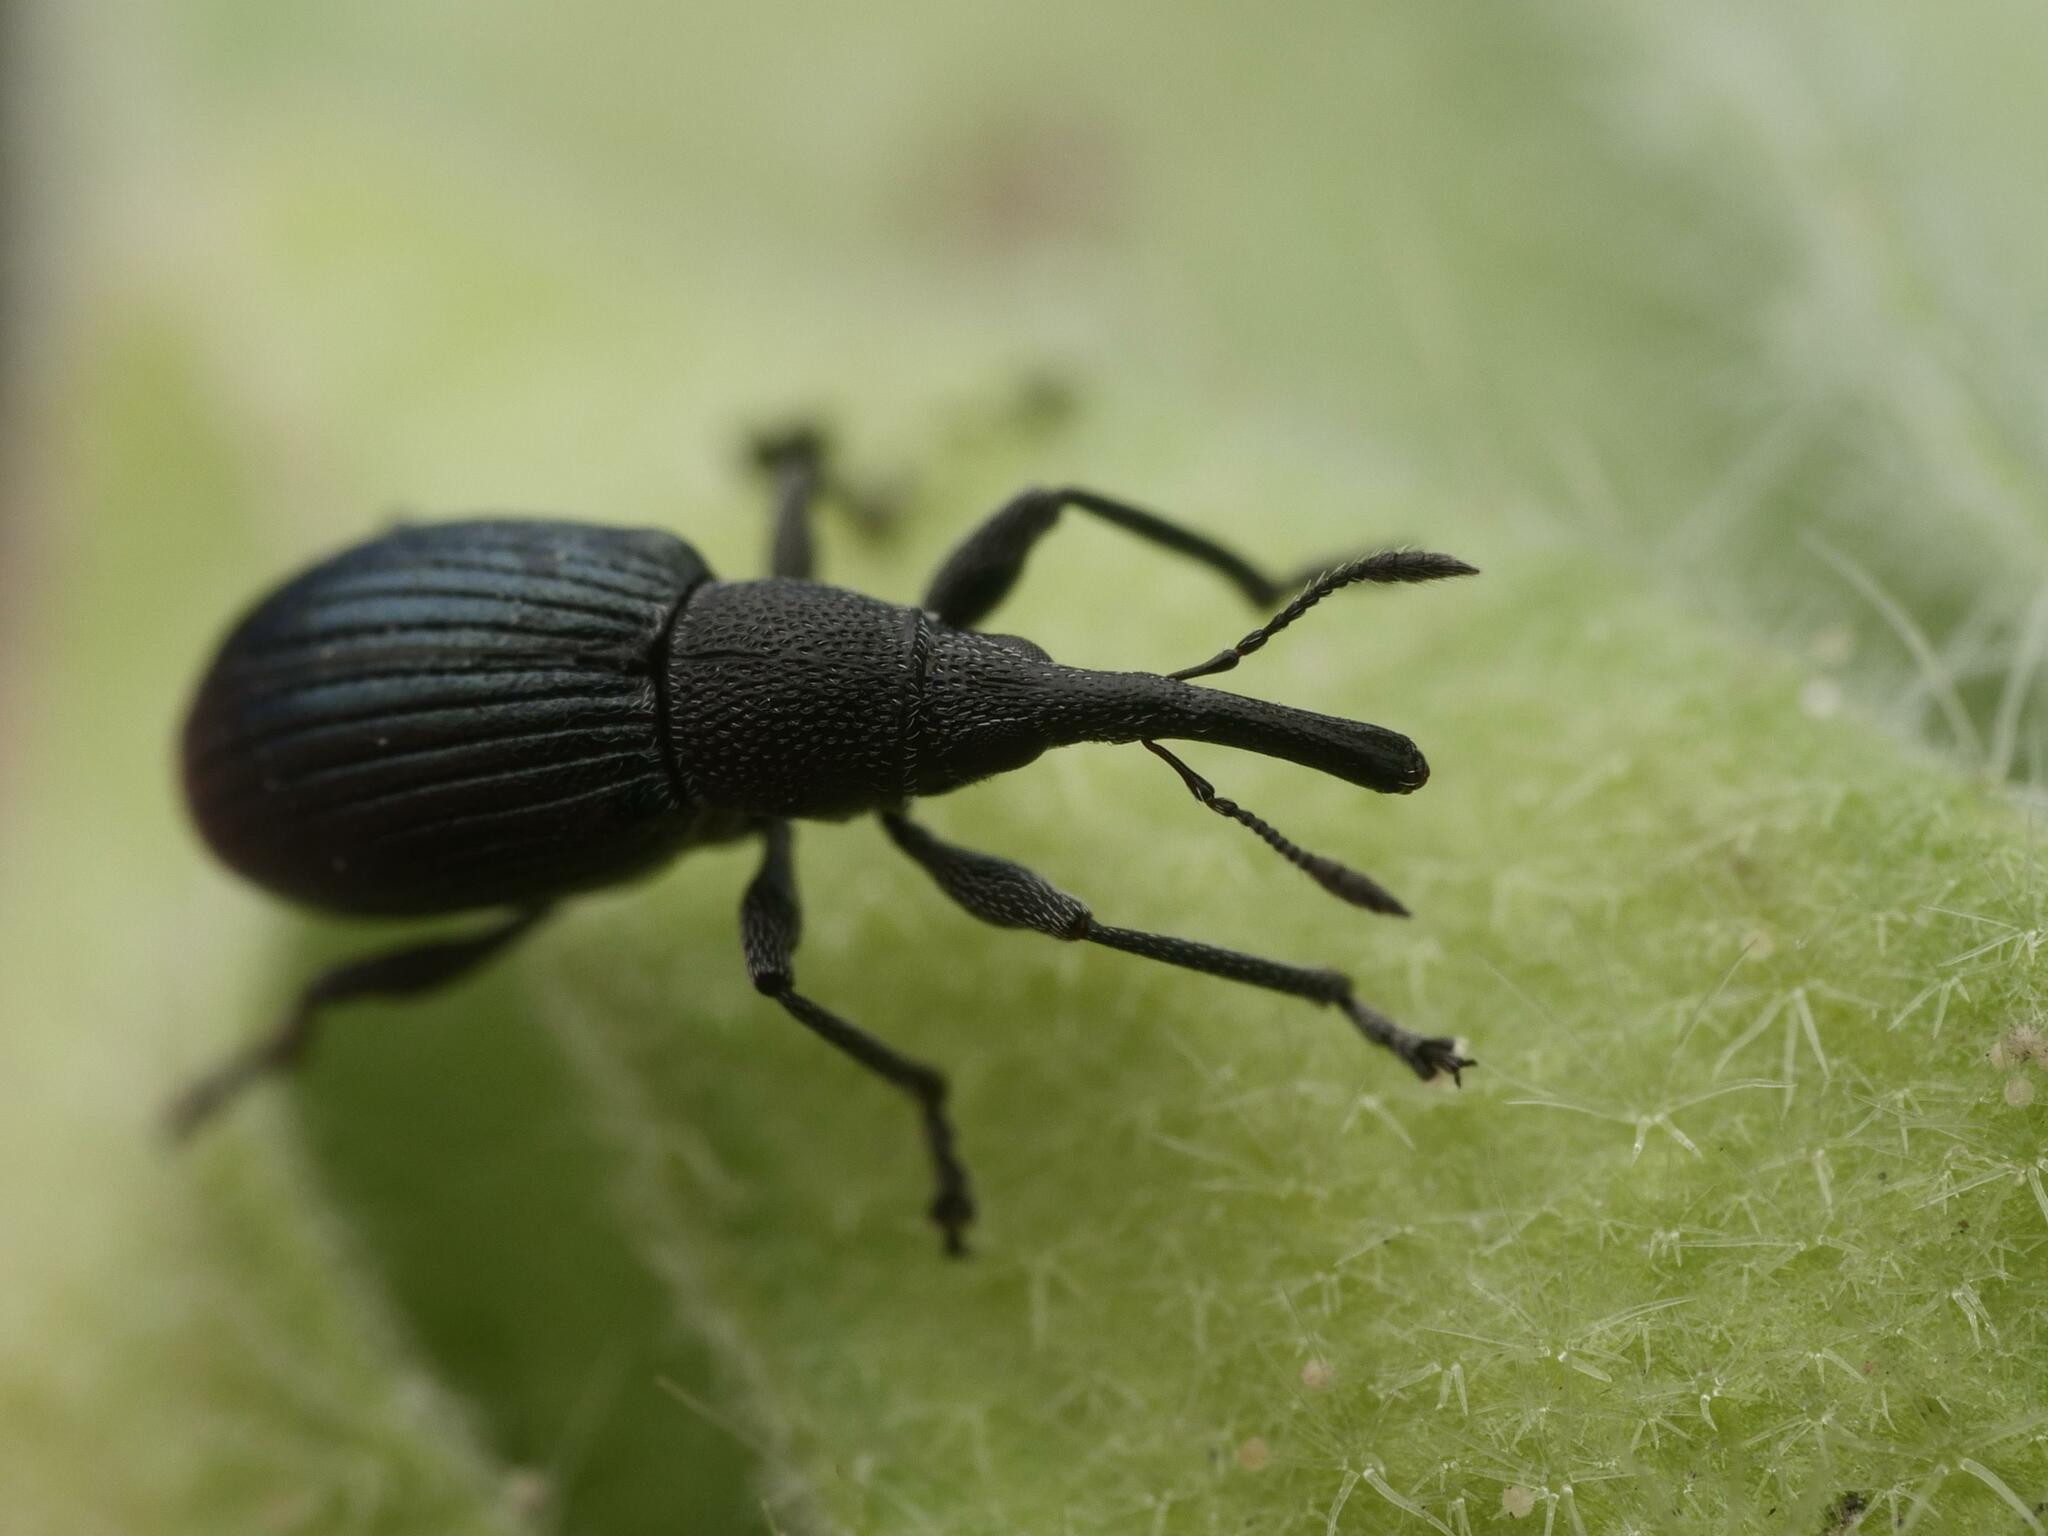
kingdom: Animalia
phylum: Arthropoda
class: Insecta
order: Coleoptera
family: Apionidae
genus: Aspidapion
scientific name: Aspidapion radiolus
